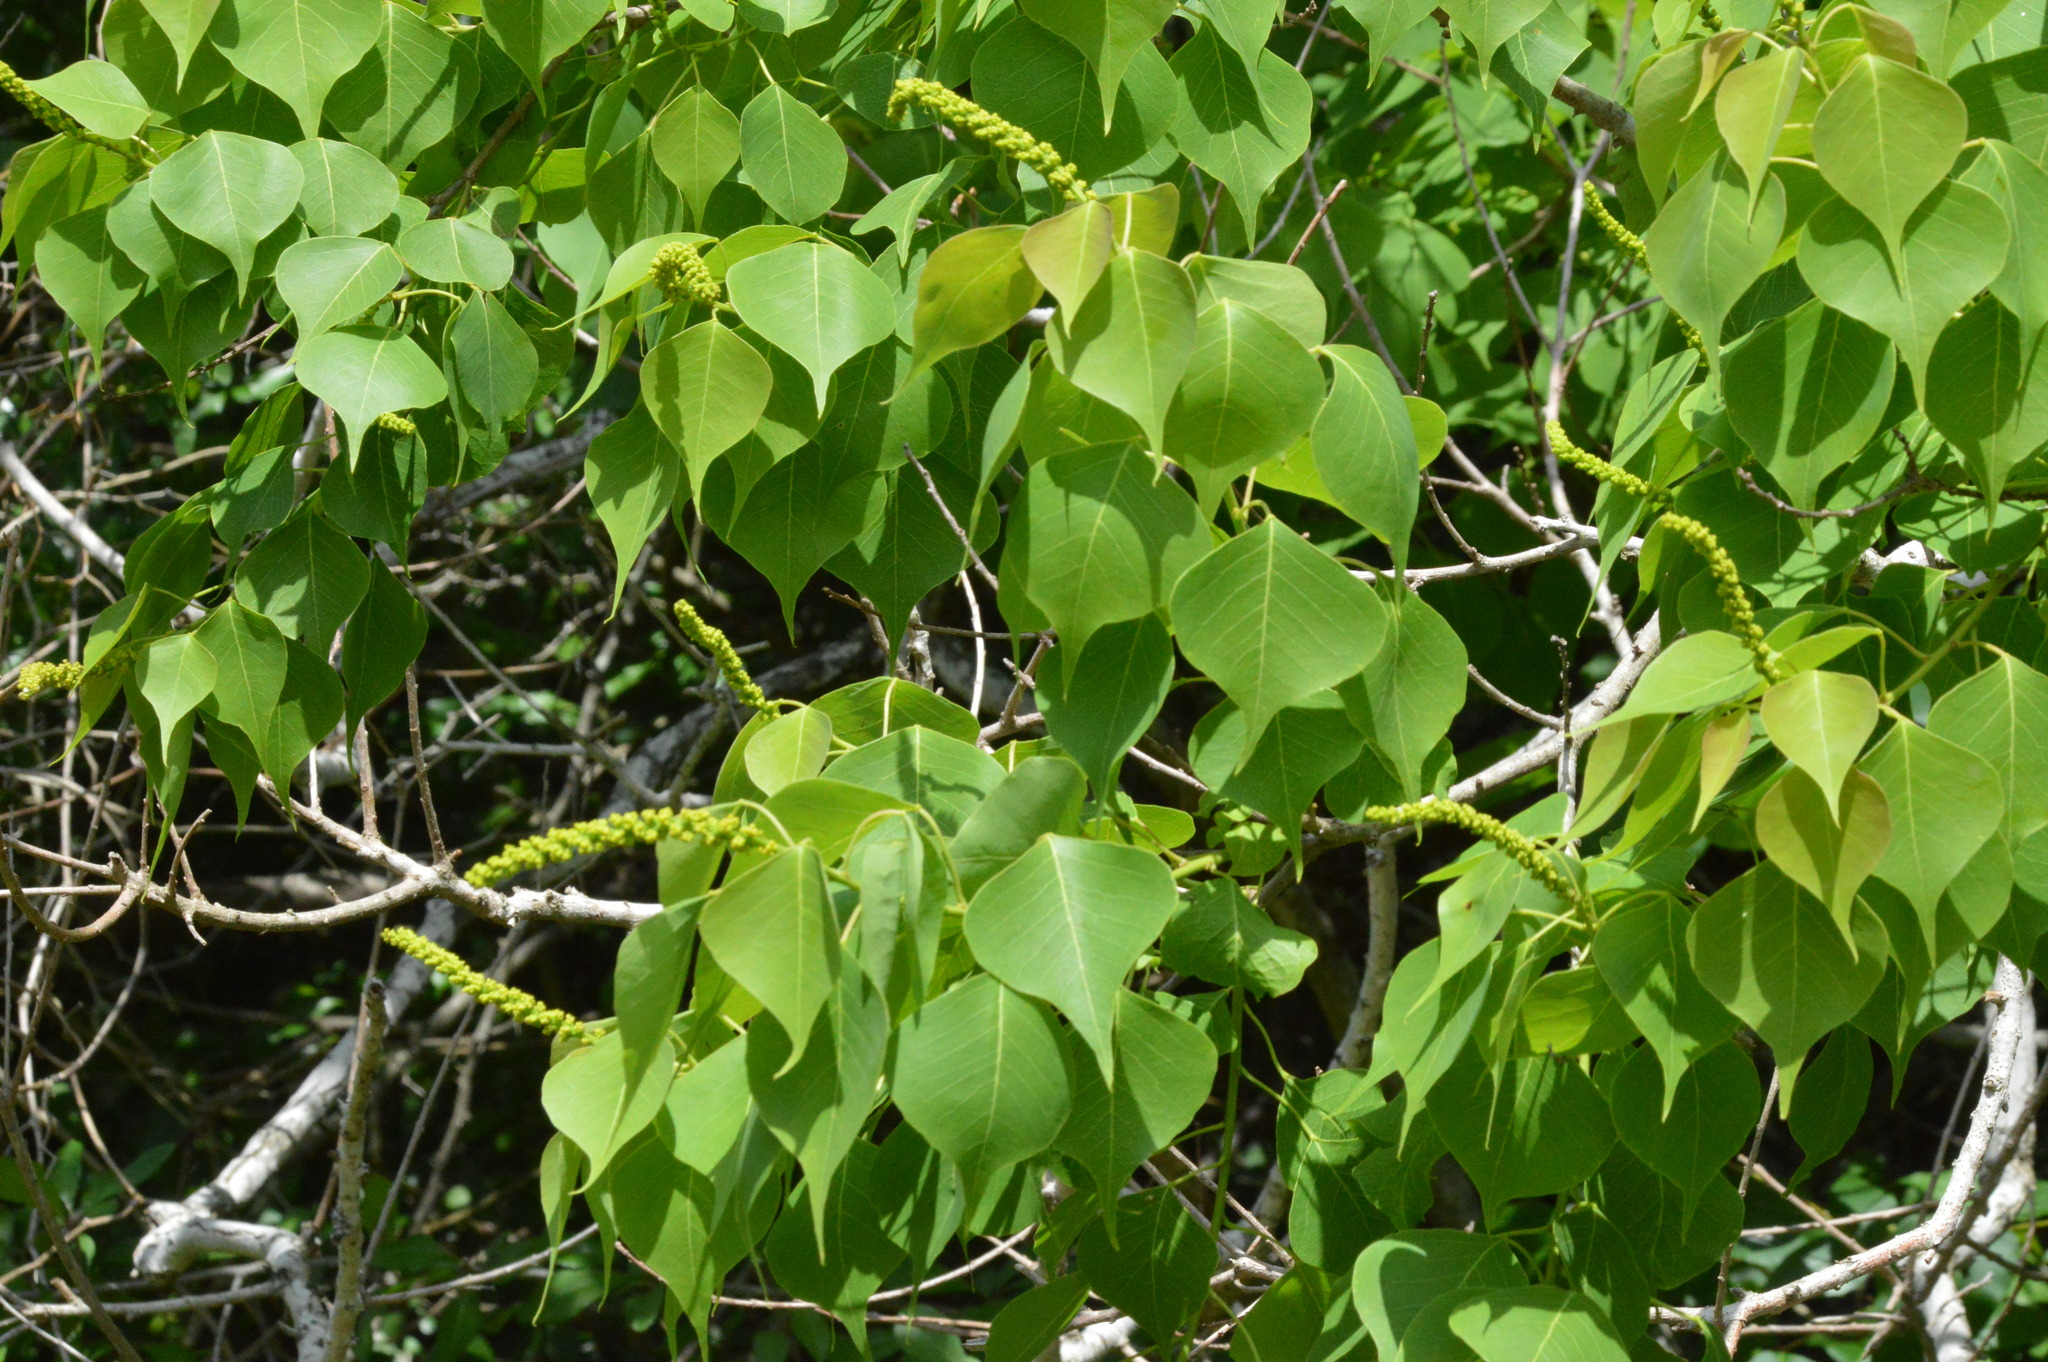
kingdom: Plantae
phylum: Tracheophyta
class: Magnoliopsida
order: Malpighiales
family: Euphorbiaceae
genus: Triadica
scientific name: Triadica sebifera
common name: Chinese tallow
